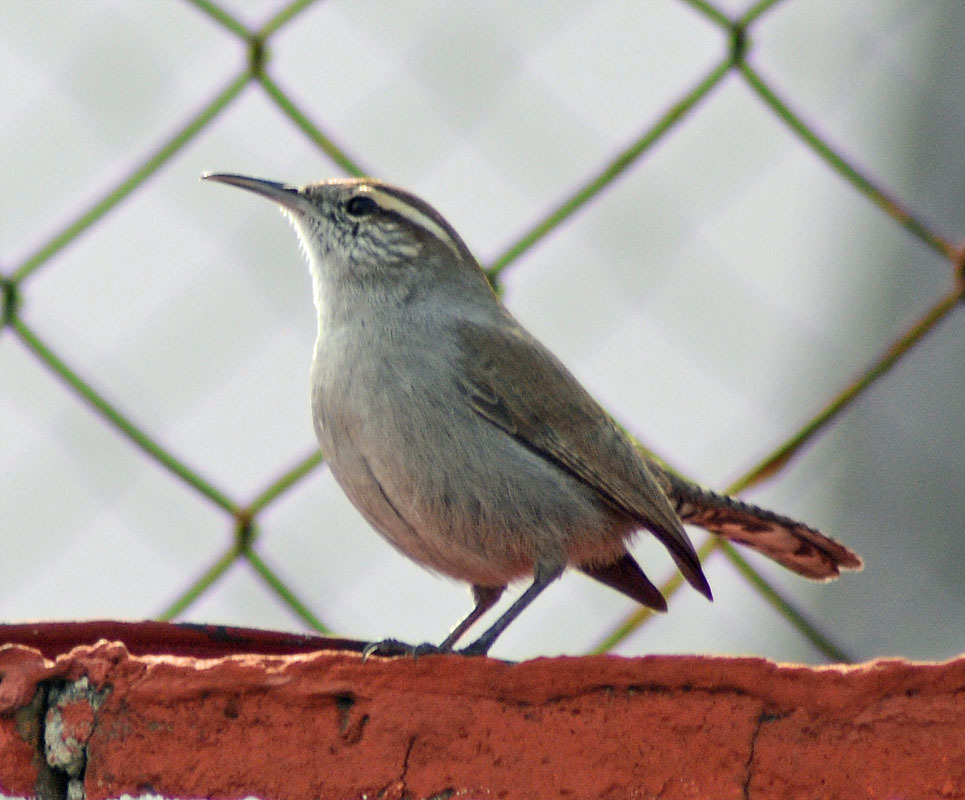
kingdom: Animalia
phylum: Chordata
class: Aves
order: Passeriformes
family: Troglodytidae
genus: Thryomanes
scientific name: Thryomanes bewickii
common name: Bewick's wren
